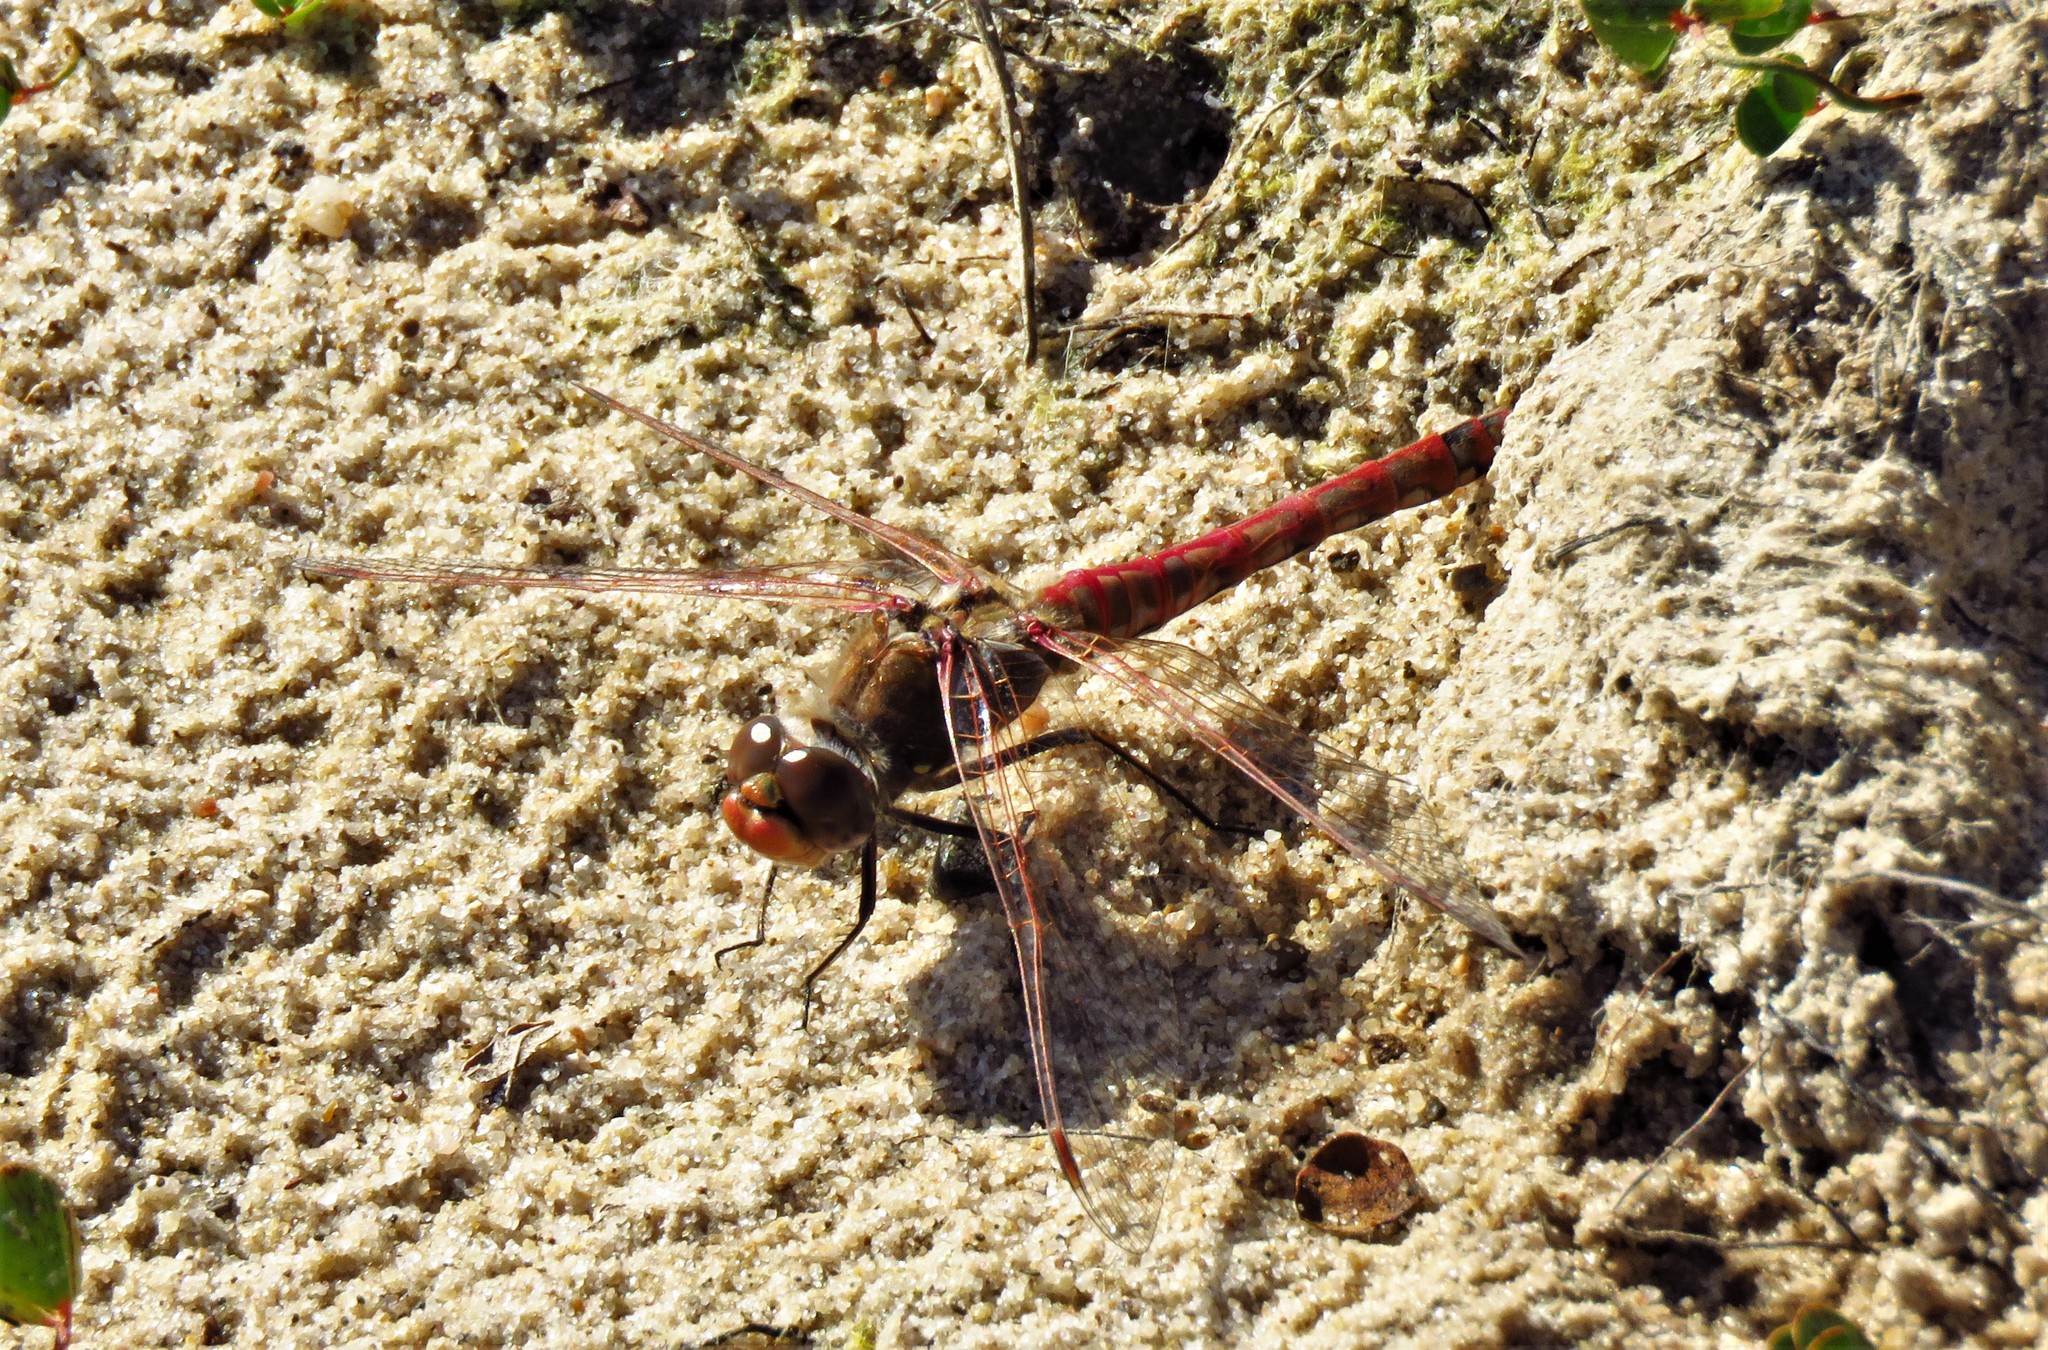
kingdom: Animalia
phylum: Arthropoda
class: Insecta
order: Odonata
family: Libellulidae
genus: Sympetrum
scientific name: Sympetrum corruptum
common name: Variegated meadowhawk
